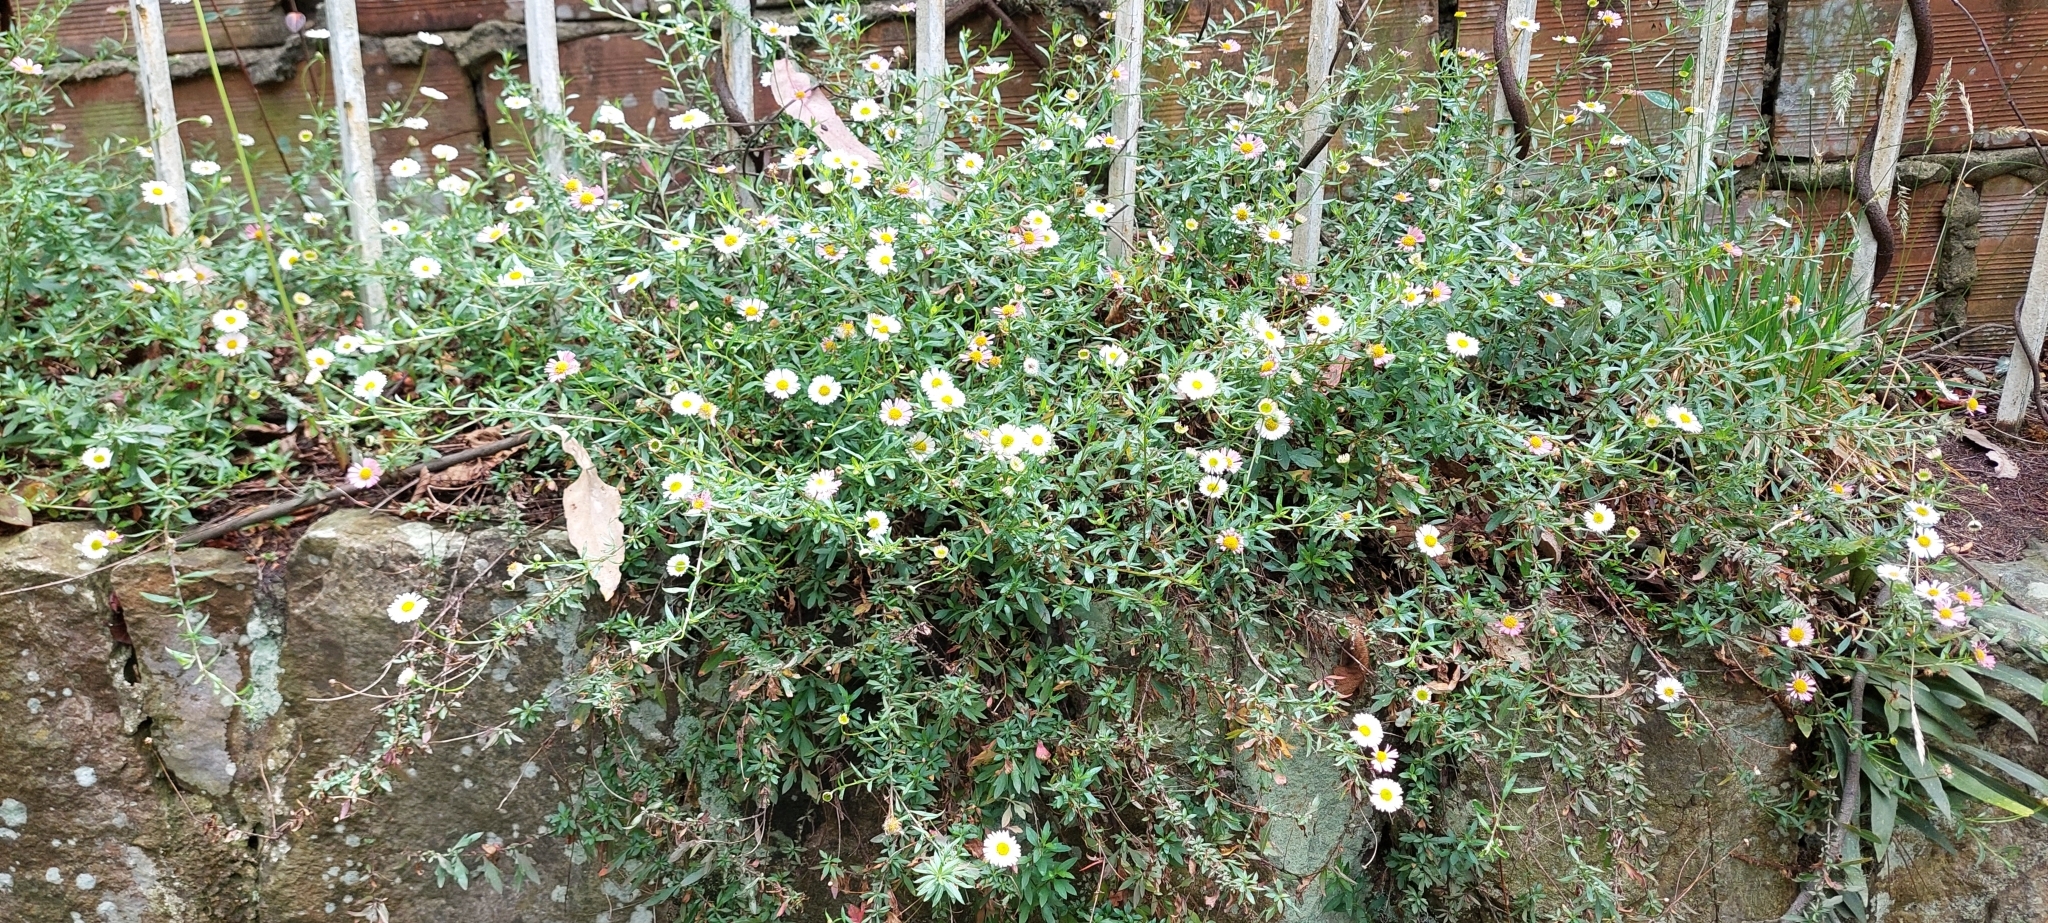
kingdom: Plantae
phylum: Tracheophyta
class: Magnoliopsida
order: Asterales
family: Asteraceae
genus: Erigeron
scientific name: Erigeron karvinskianus
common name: Mexican fleabane
